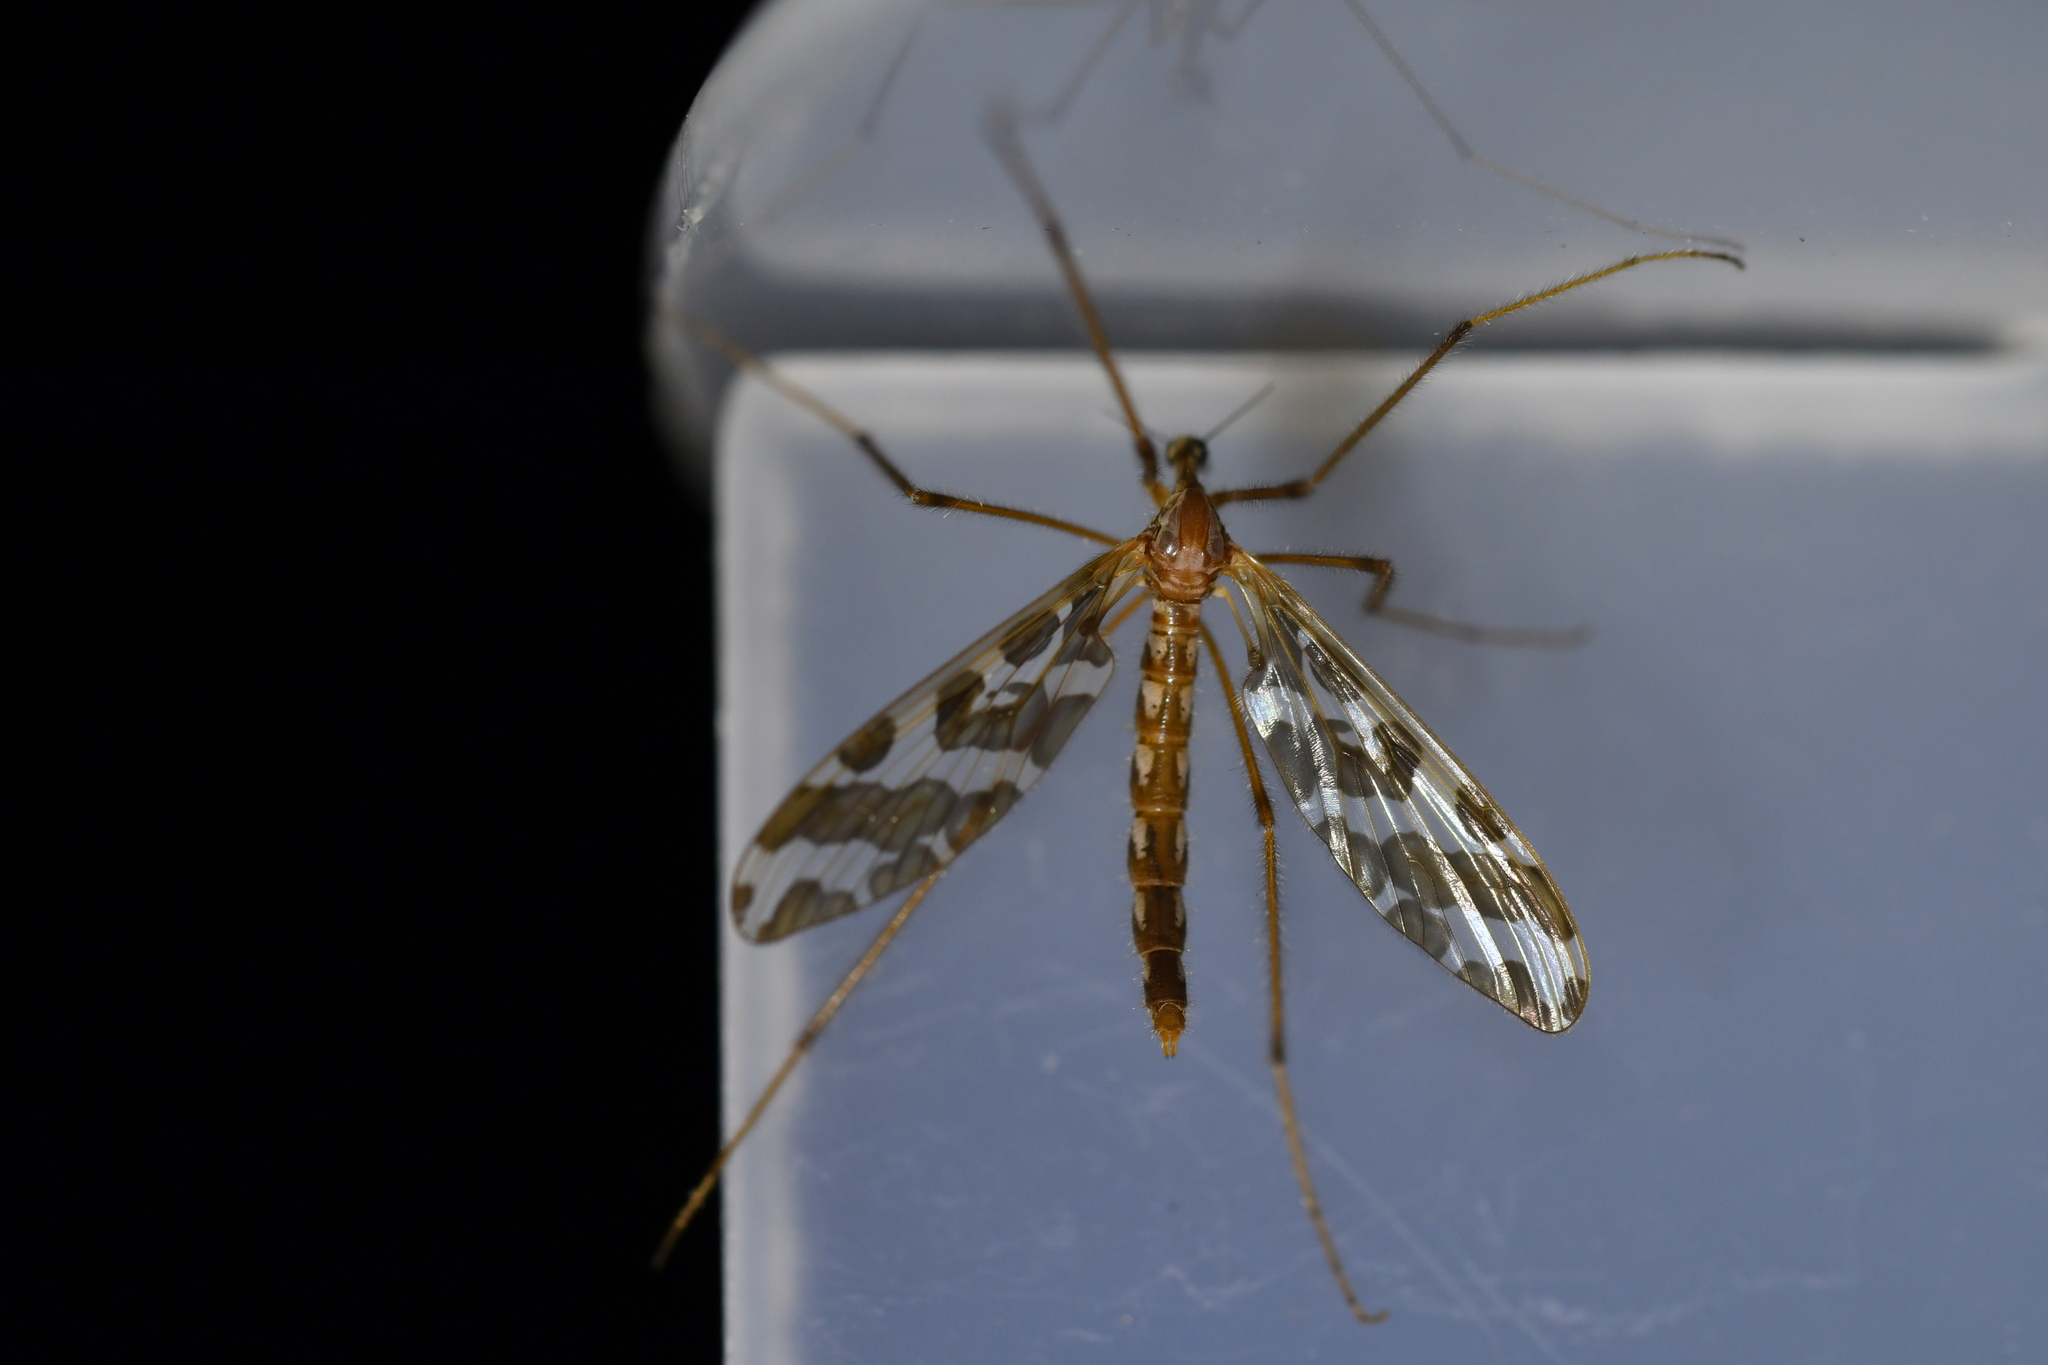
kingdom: Animalia
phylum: Arthropoda
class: Insecta
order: Diptera
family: Tanyderidae
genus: Tanyderus
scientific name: Tanyderus forcipatus
